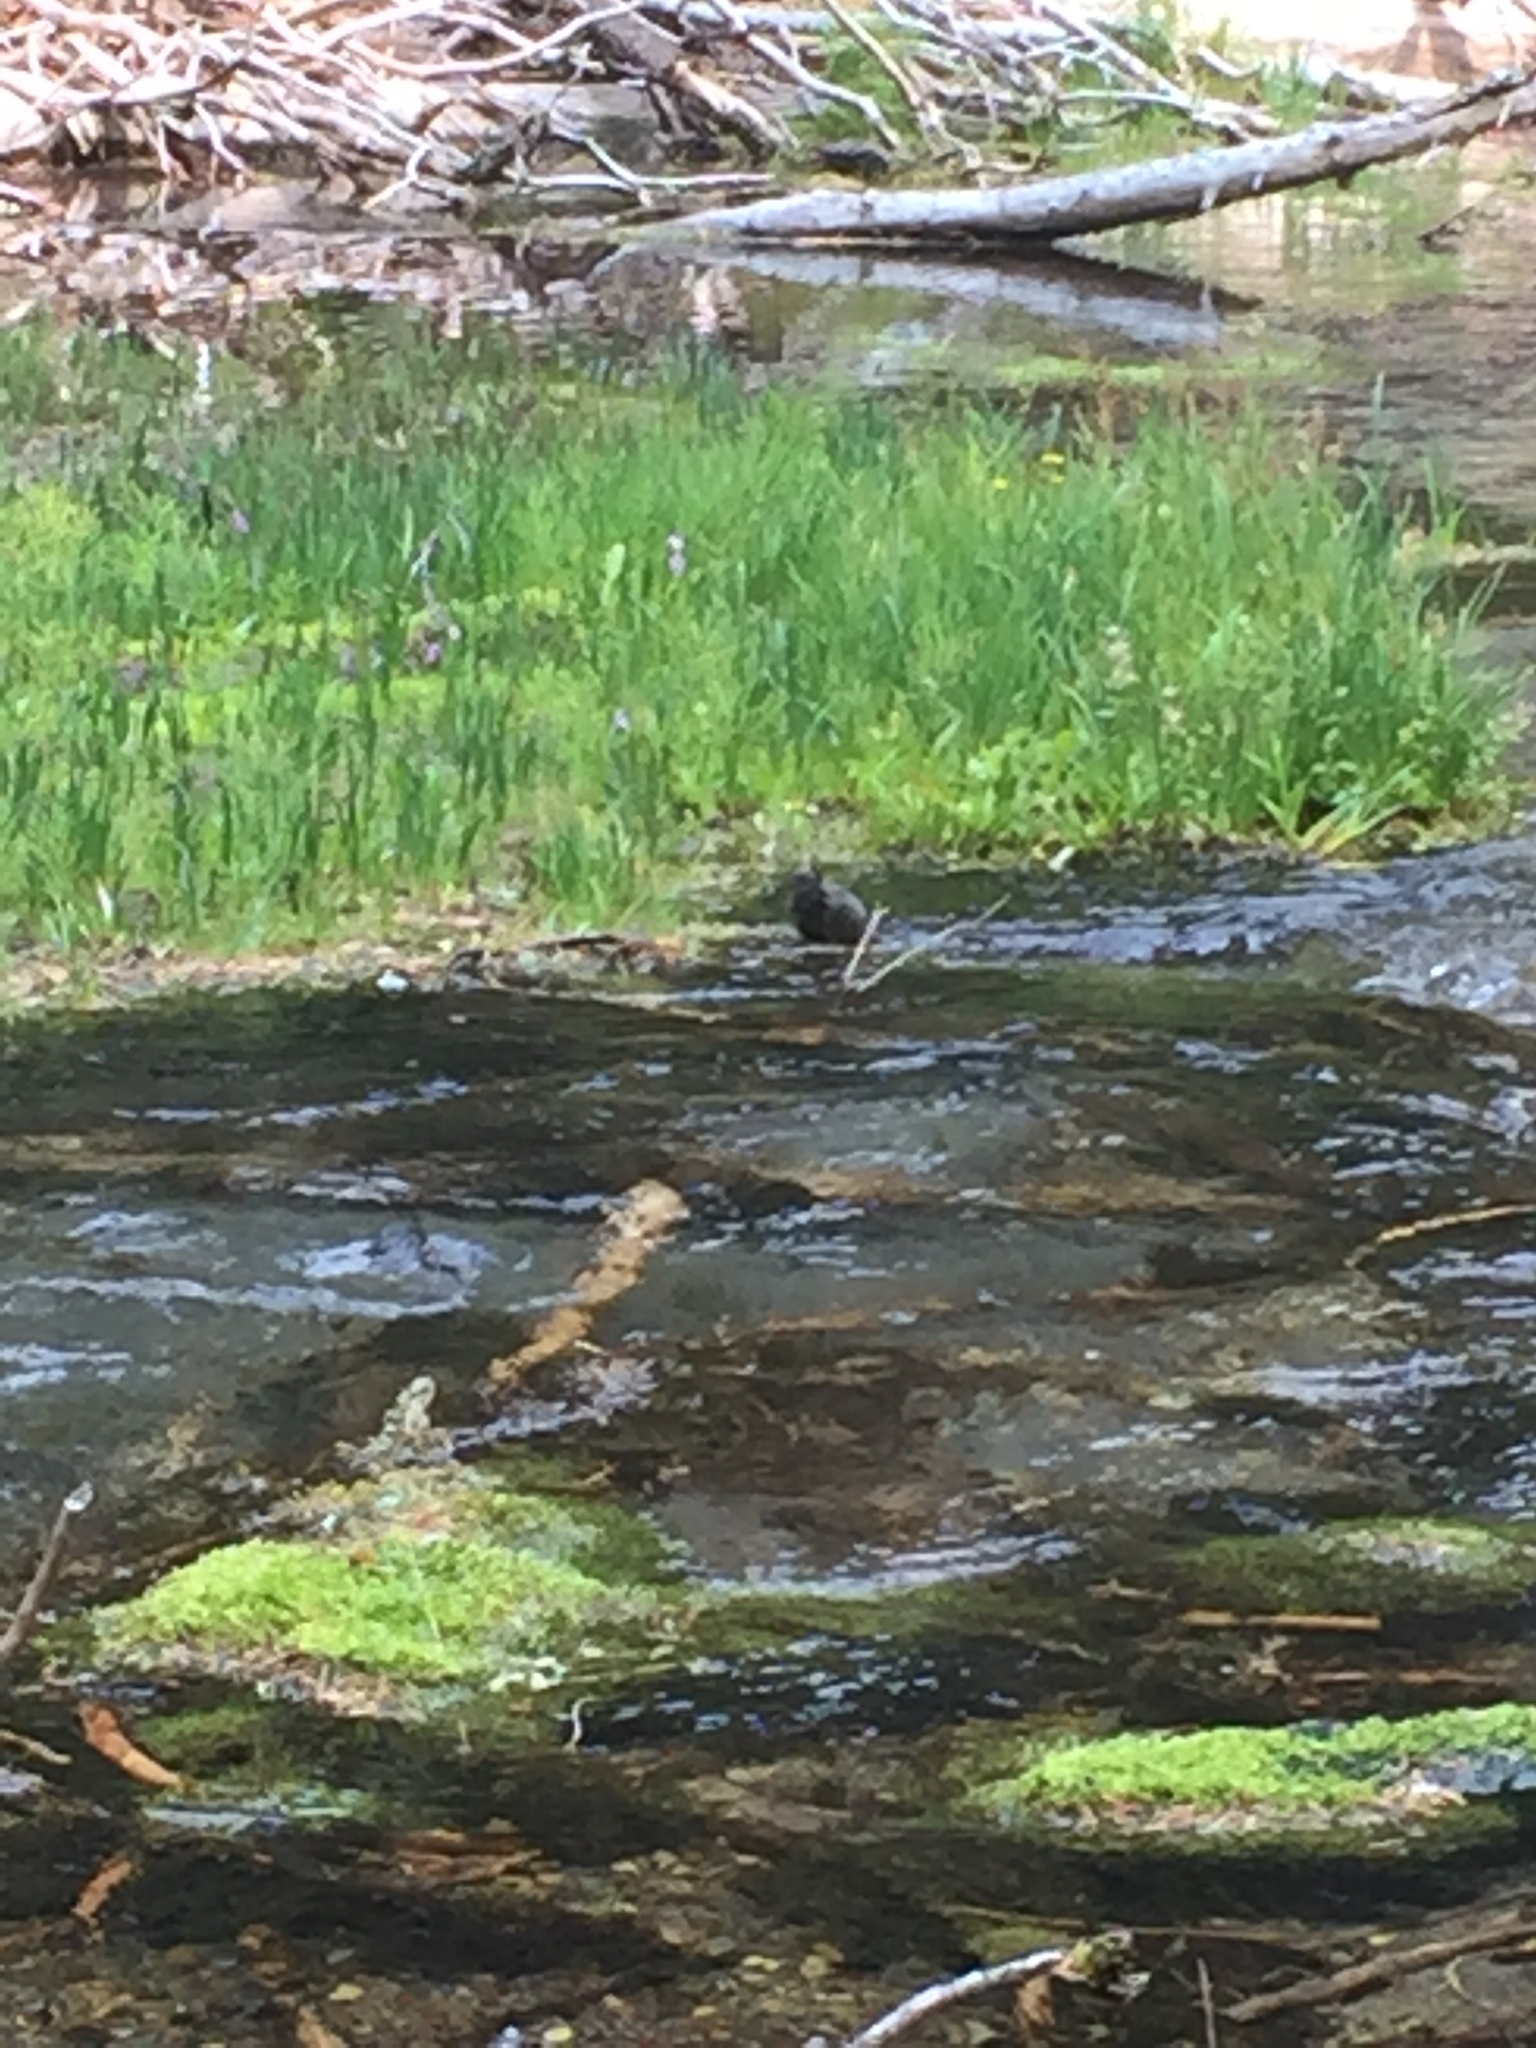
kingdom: Animalia
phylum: Chordata
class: Aves
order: Passeriformes
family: Cinclidae
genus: Cinclus
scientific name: Cinclus mexicanus
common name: American dipper
